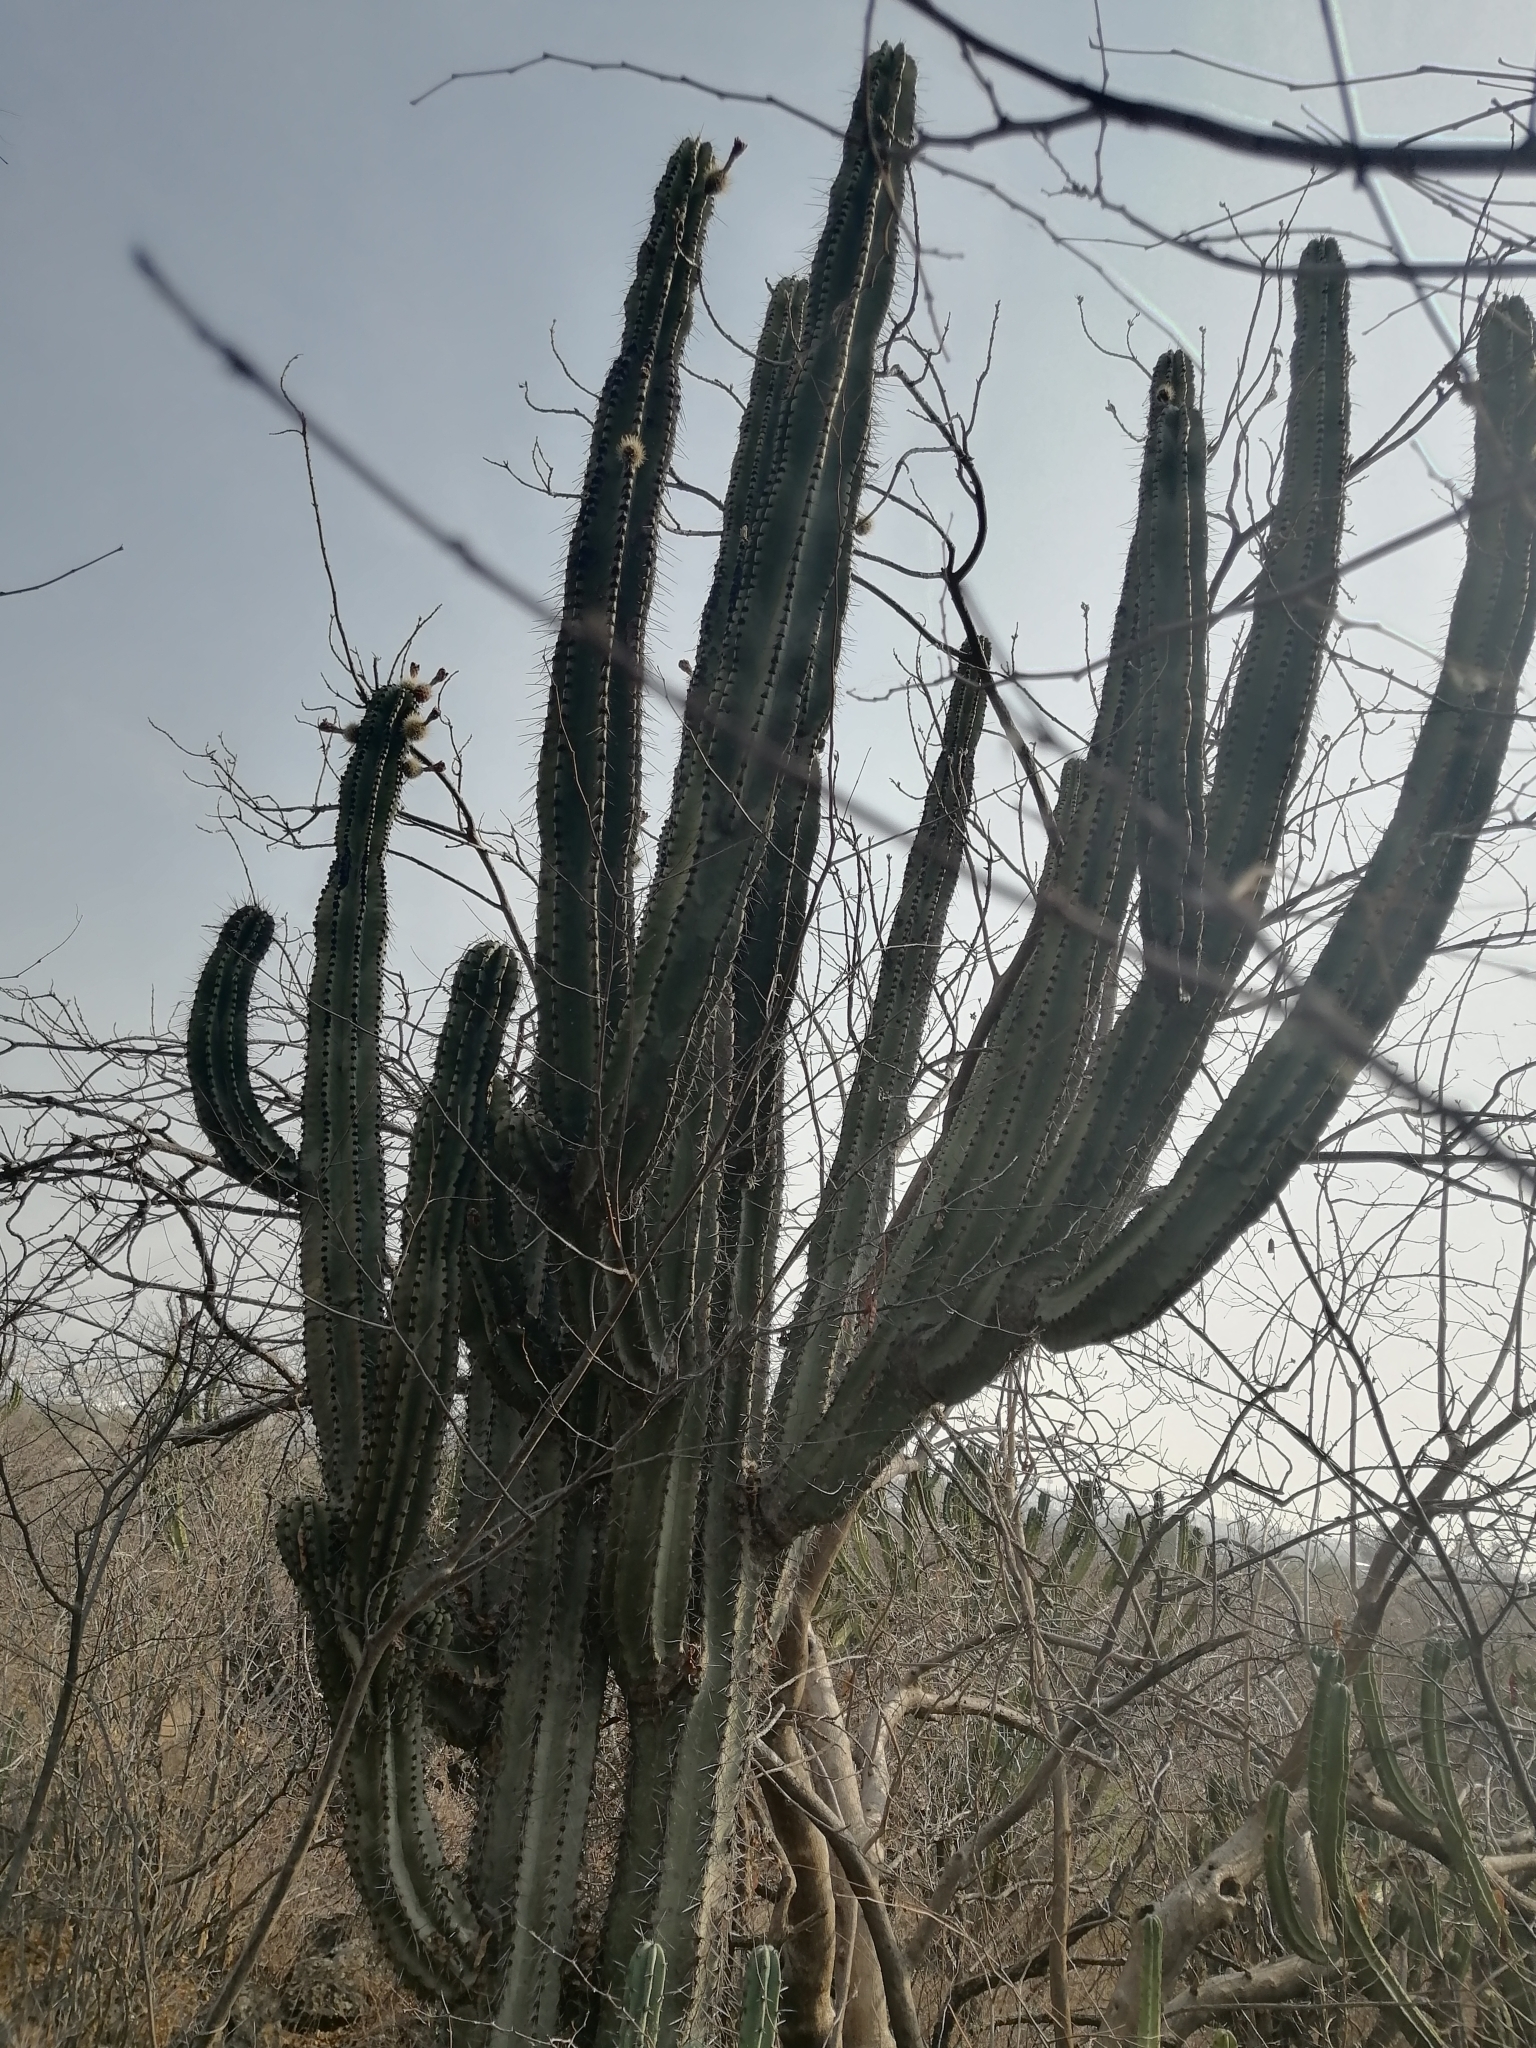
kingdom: Plantae
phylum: Tracheophyta
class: Magnoliopsida
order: Caryophyllales
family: Cactaceae
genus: Stenocereus
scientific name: Stenocereus queretaroensis
